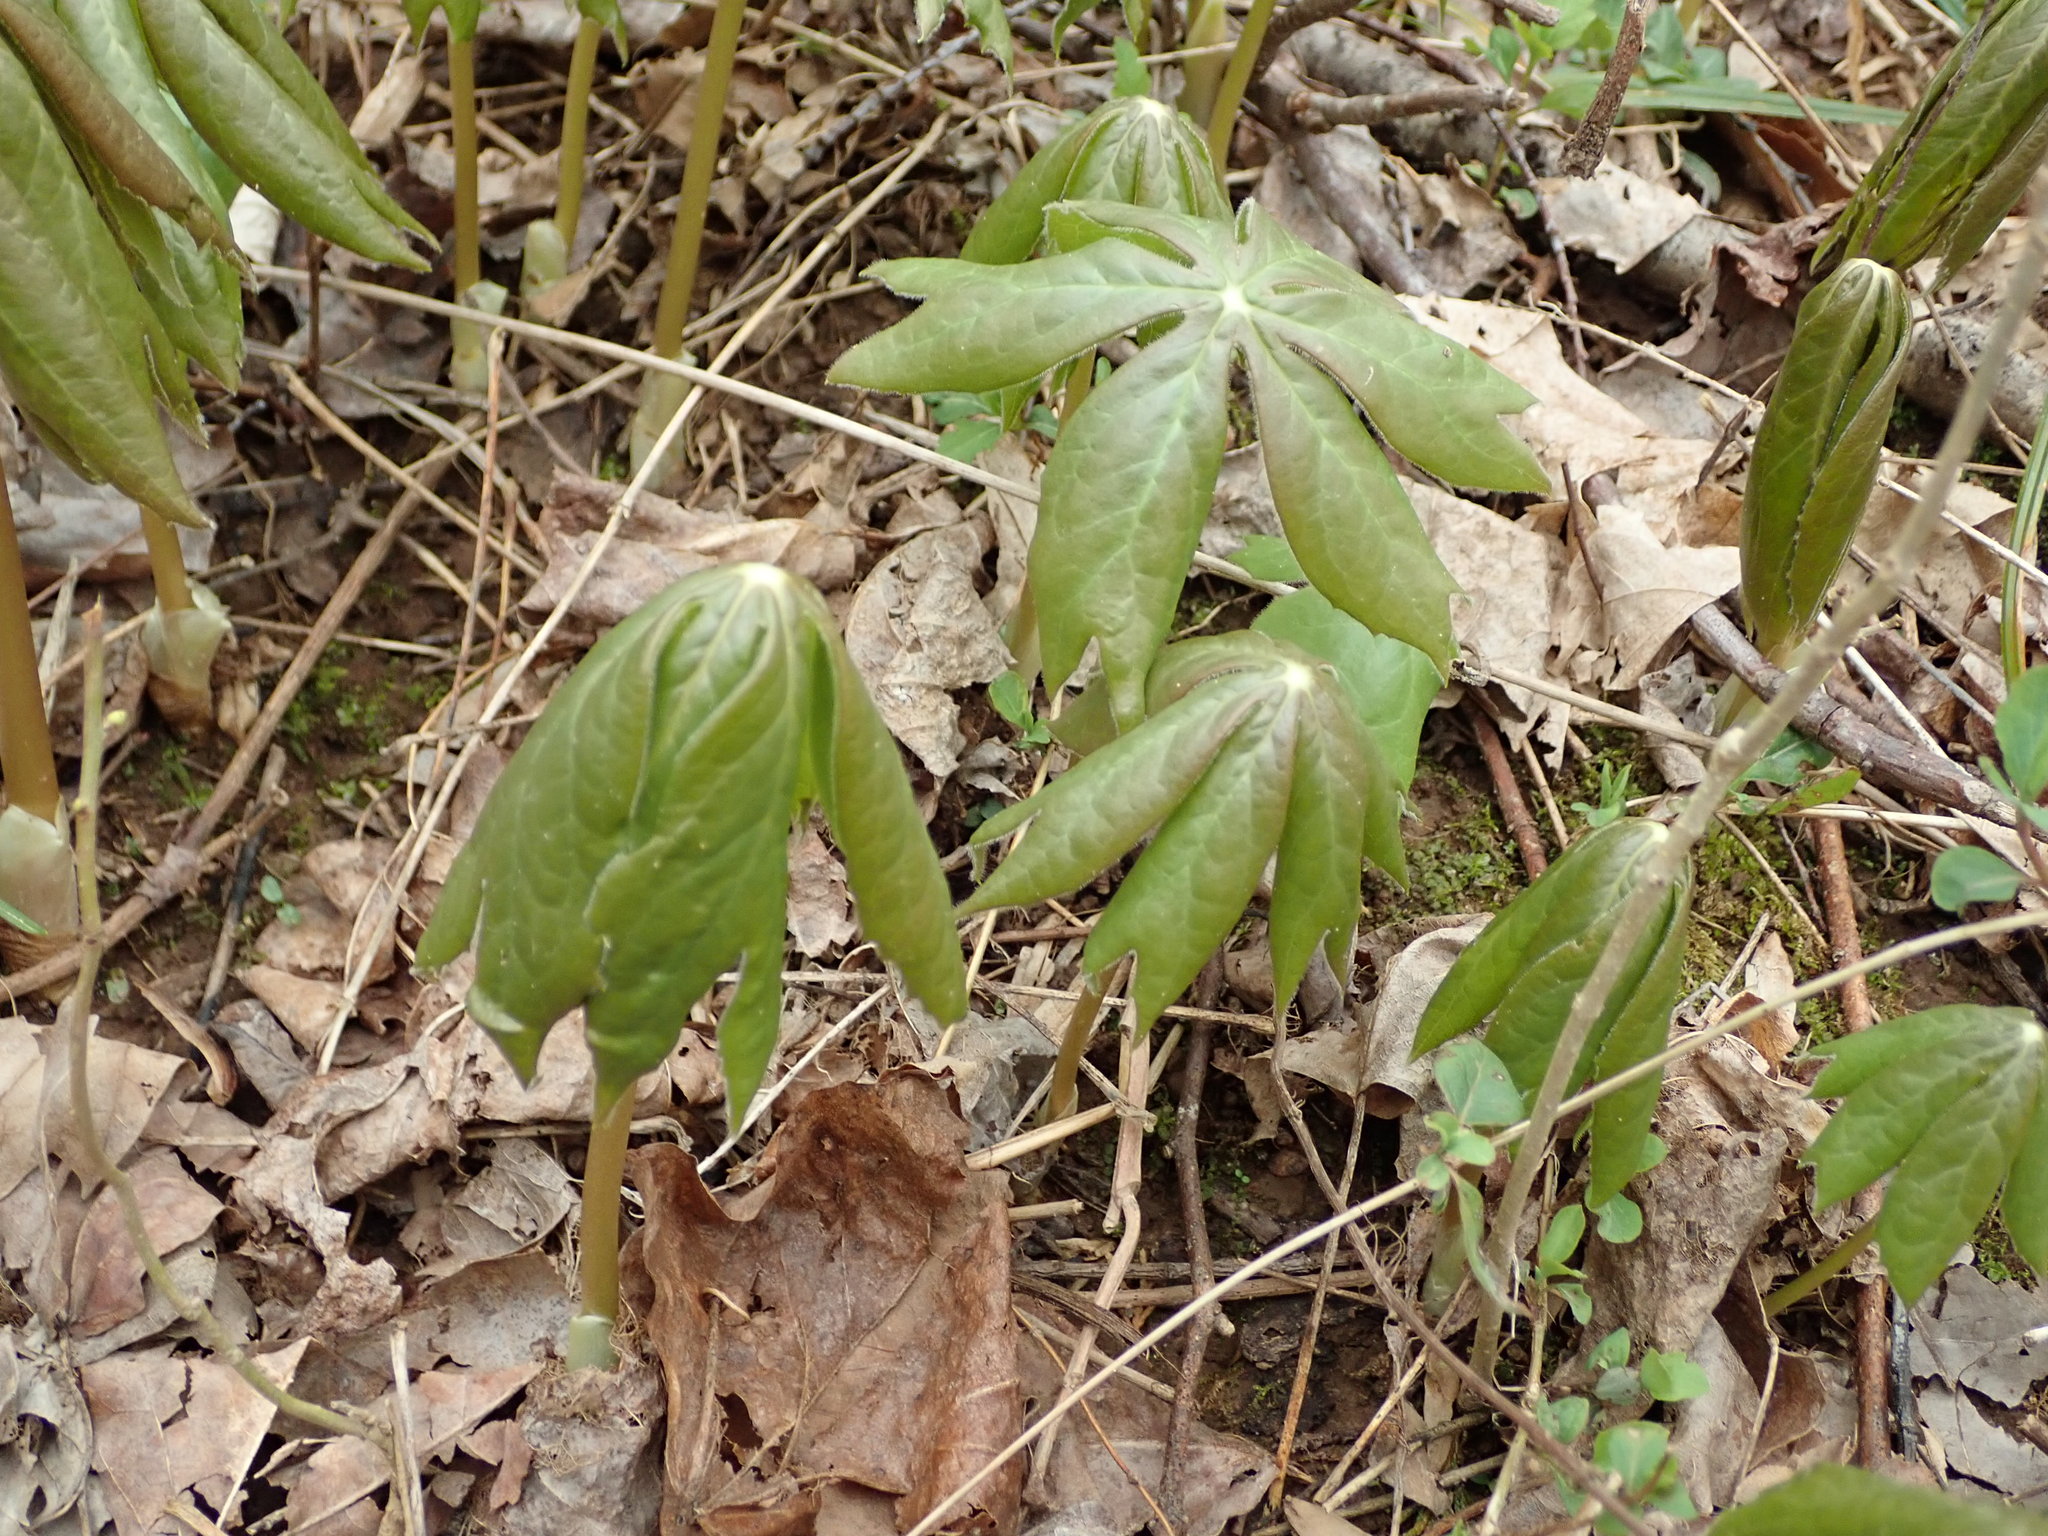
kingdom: Plantae
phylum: Tracheophyta
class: Magnoliopsida
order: Ranunculales
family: Berberidaceae
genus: Podophyllum
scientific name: Podophyllum peltatum
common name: Wild mandrake
